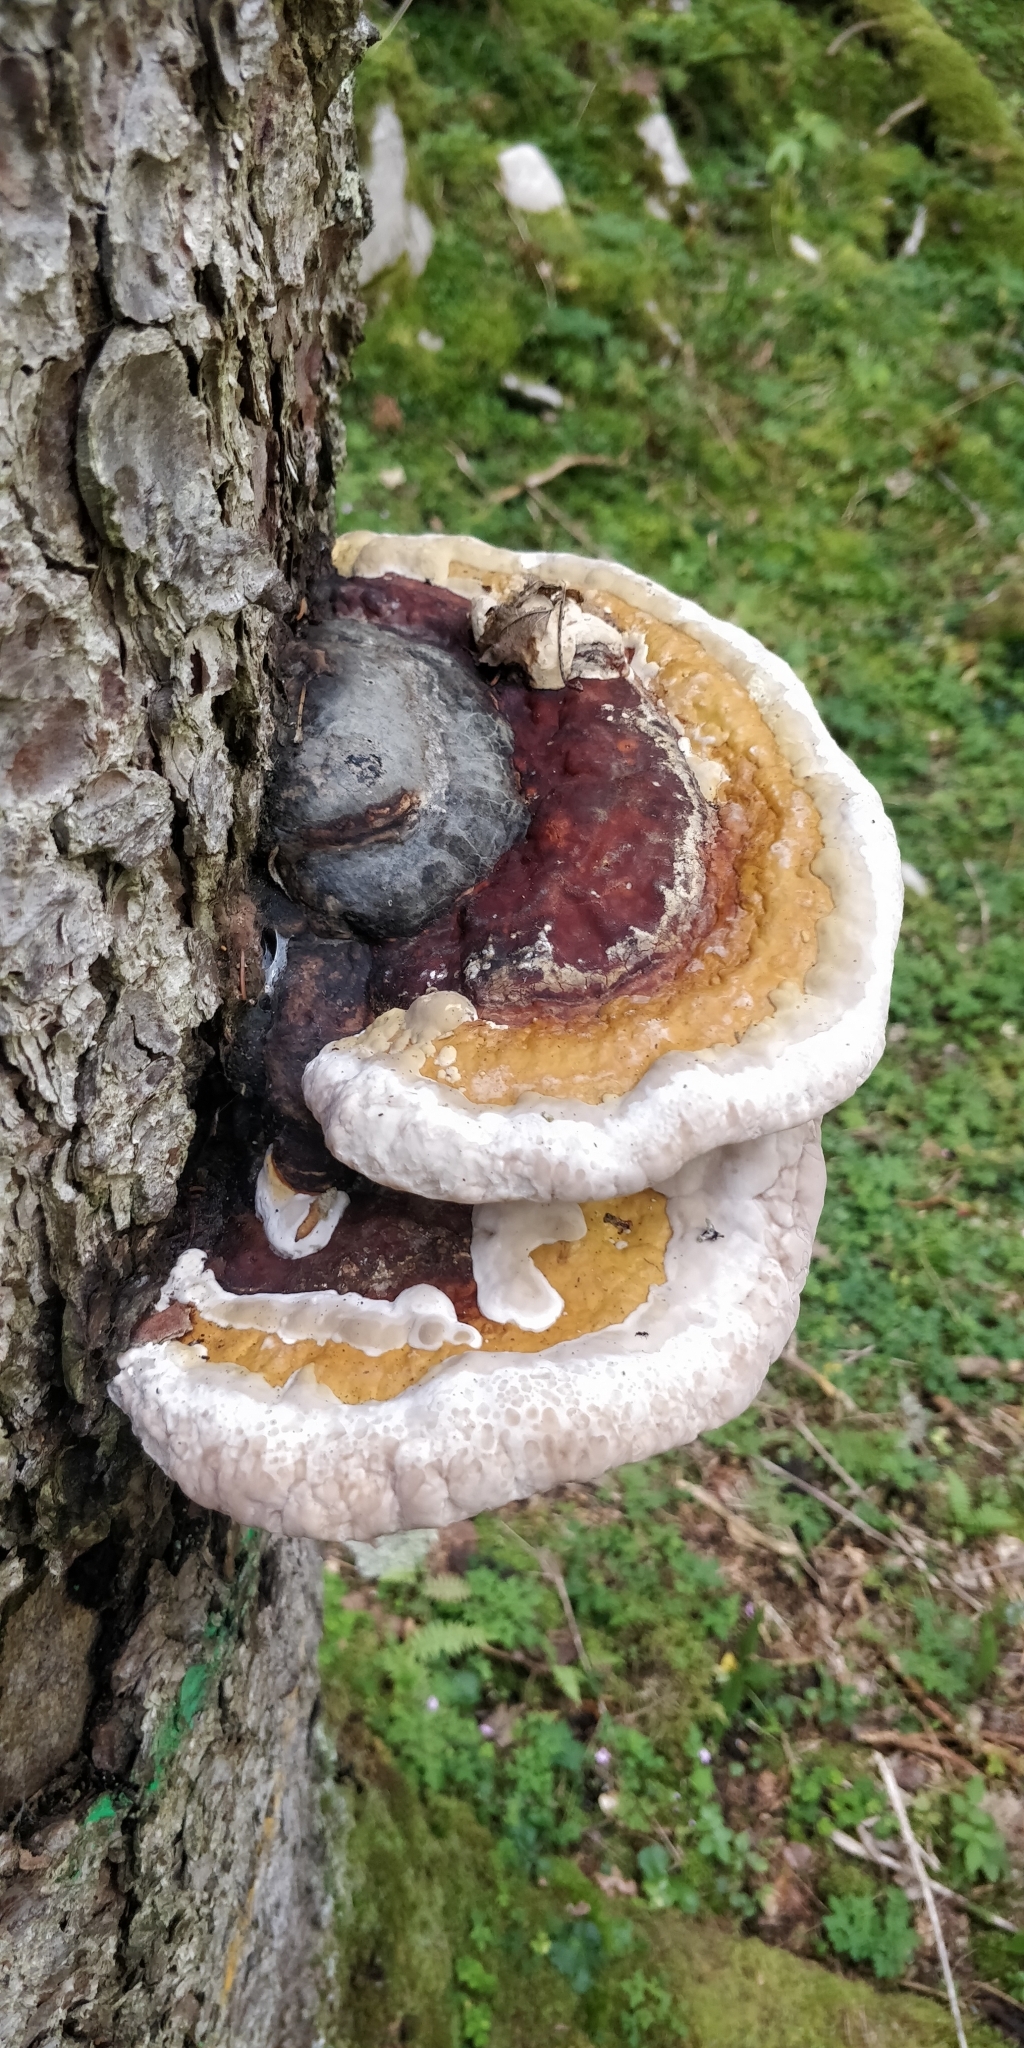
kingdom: Fungi
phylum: Basidiomycota
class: Agaricomycetes
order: Polyporales
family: Fomitopsidaceae
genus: Fomitopsis
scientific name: Fomitopsis pinicola
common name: Red-belted bracket
